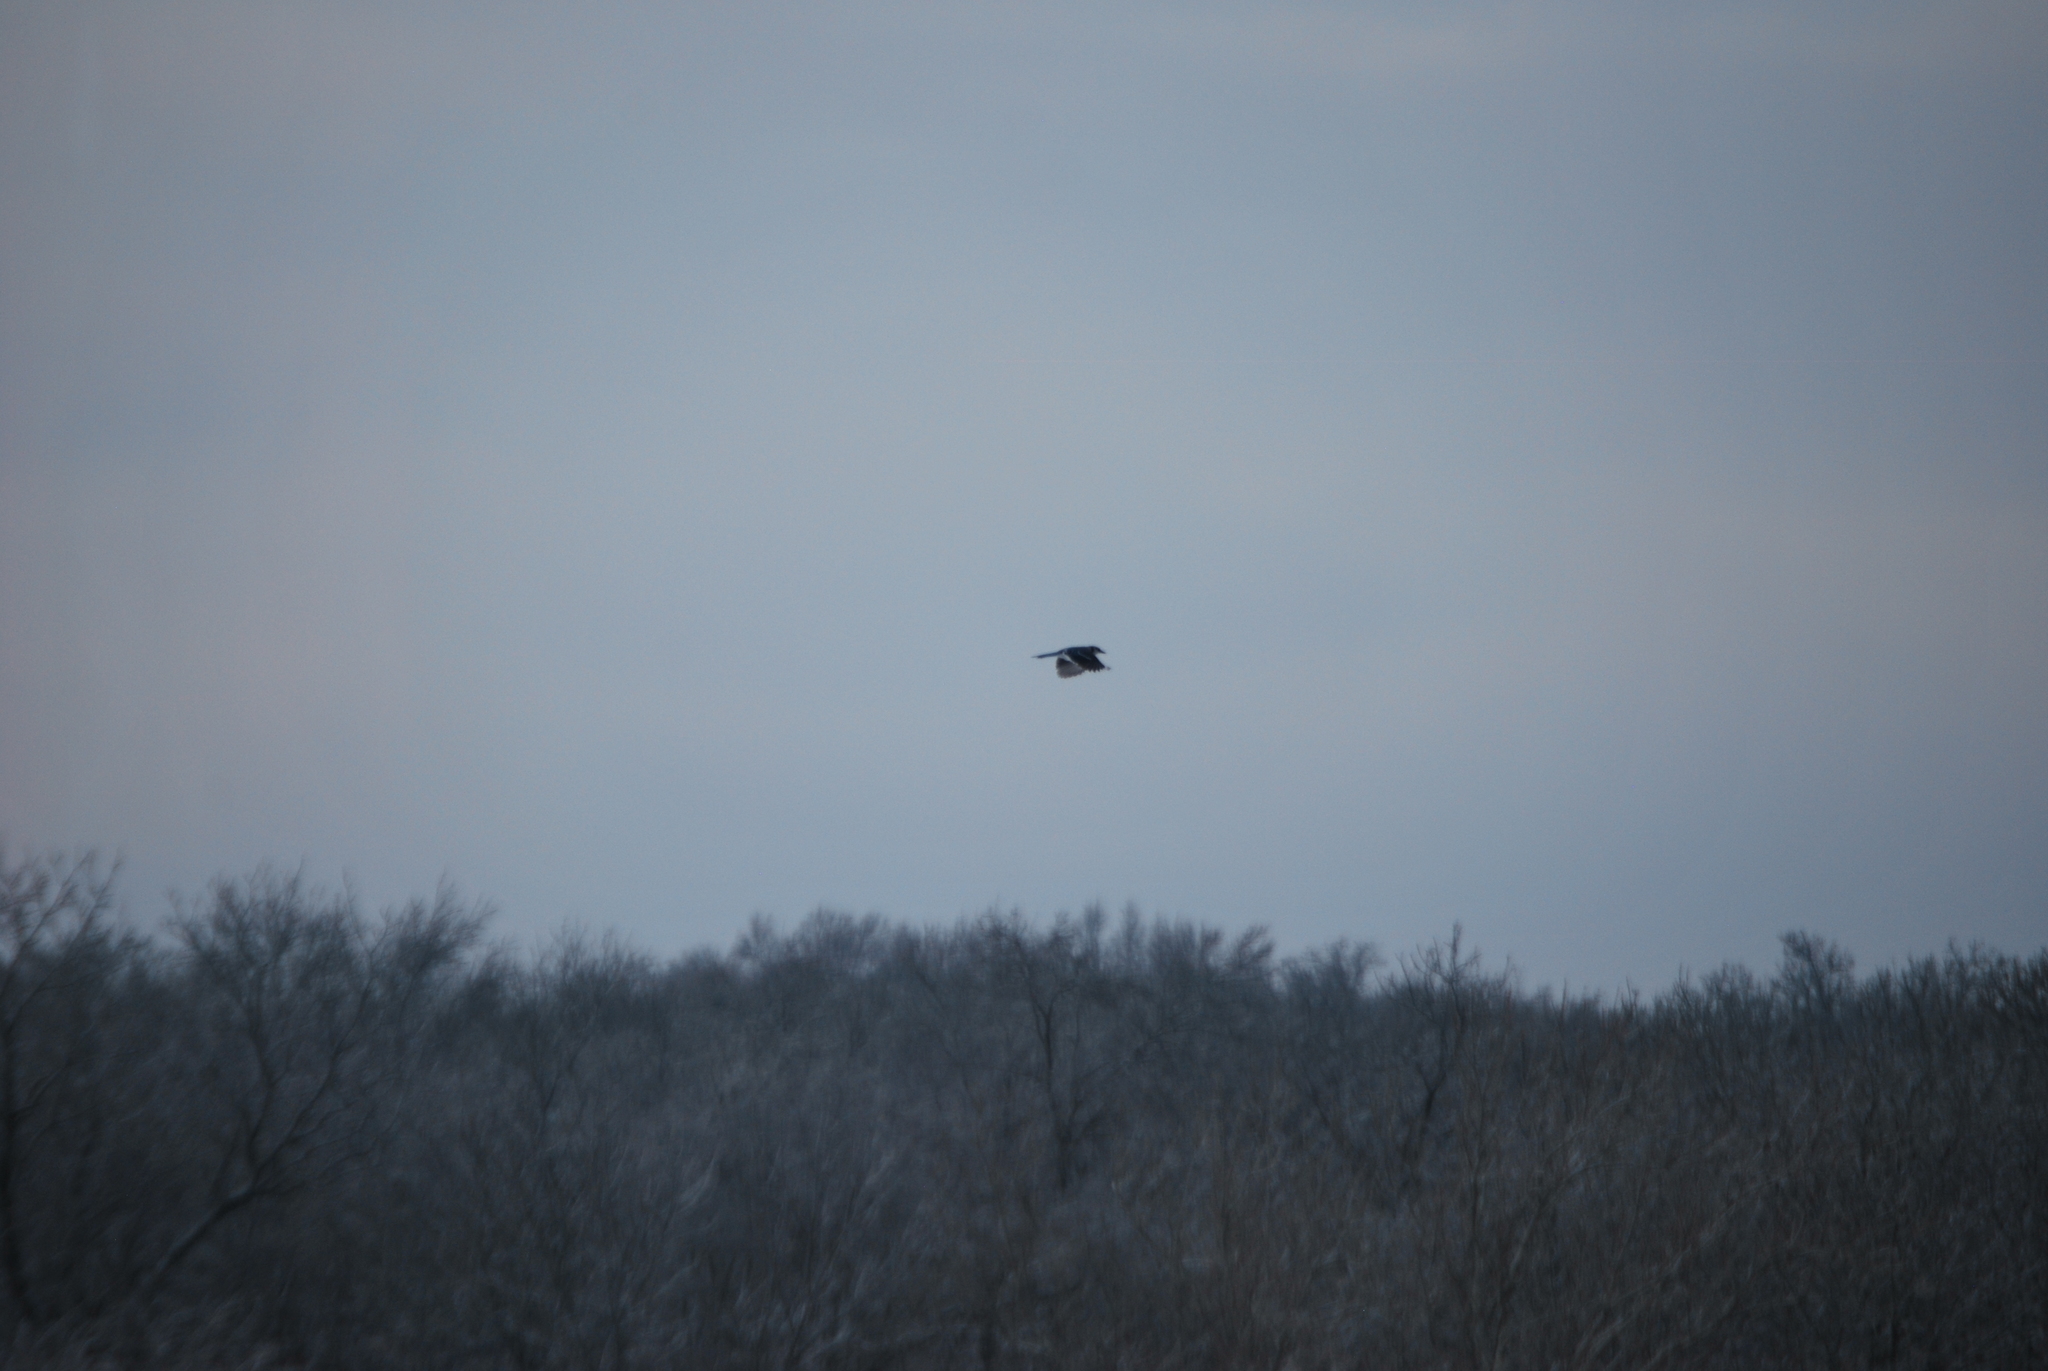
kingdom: Animalia
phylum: Chordata
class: Aves
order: Passeriformes
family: Corvidae
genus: Cyanocitta
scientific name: Cyanocitta cristata
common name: Blue jay
